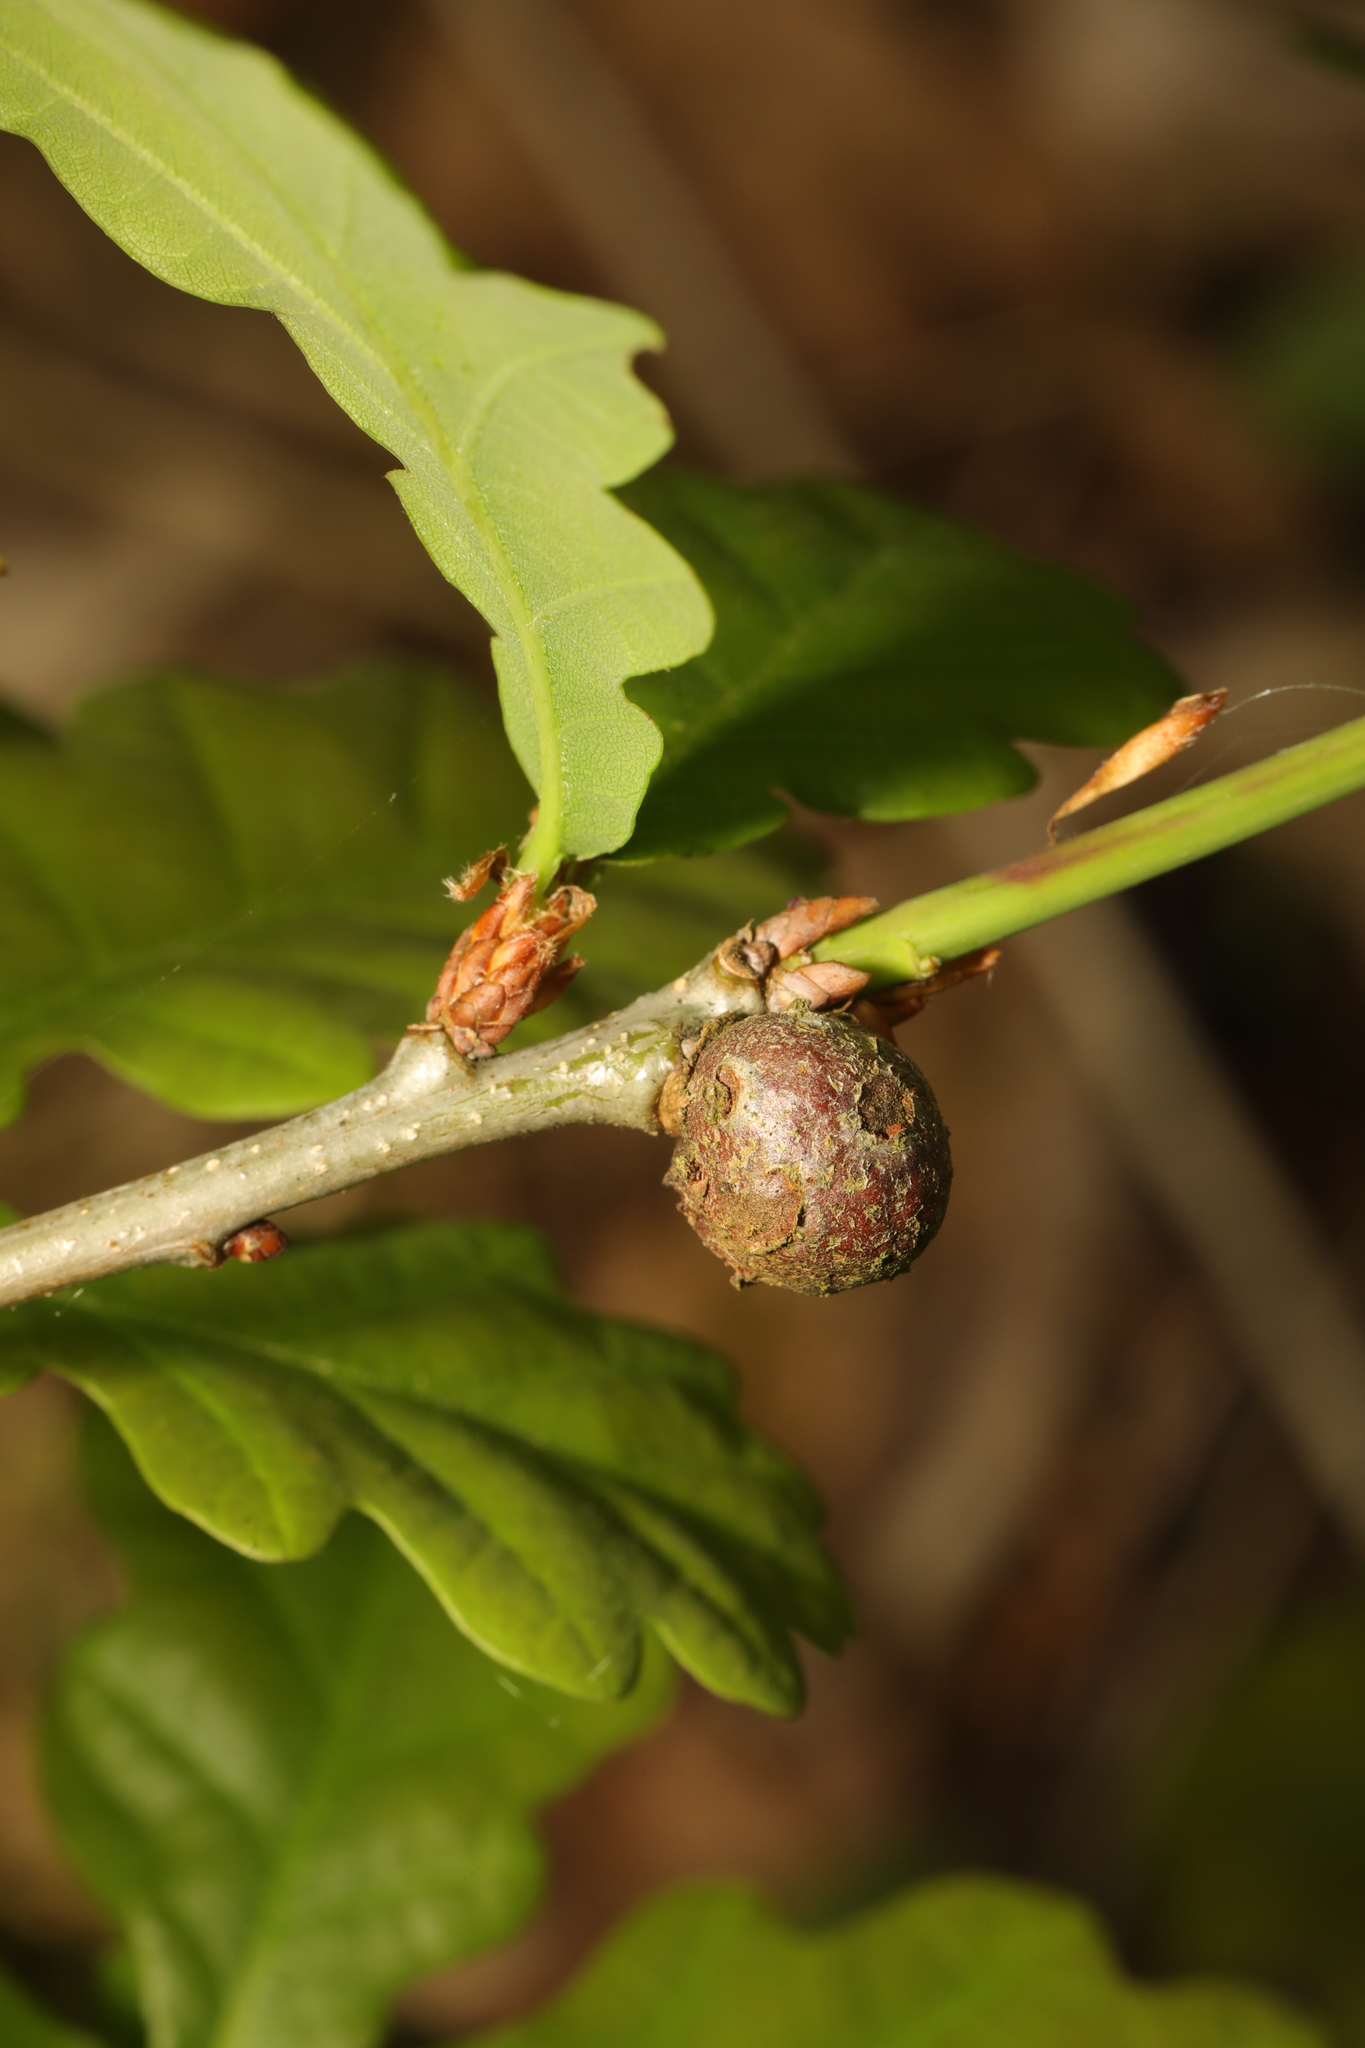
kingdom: Animalia
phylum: Arthropoda
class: Insecta
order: Hymenoptera
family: Cynipidae
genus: Andricus
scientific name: Andricus lignicolus
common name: Cola-nut gall
